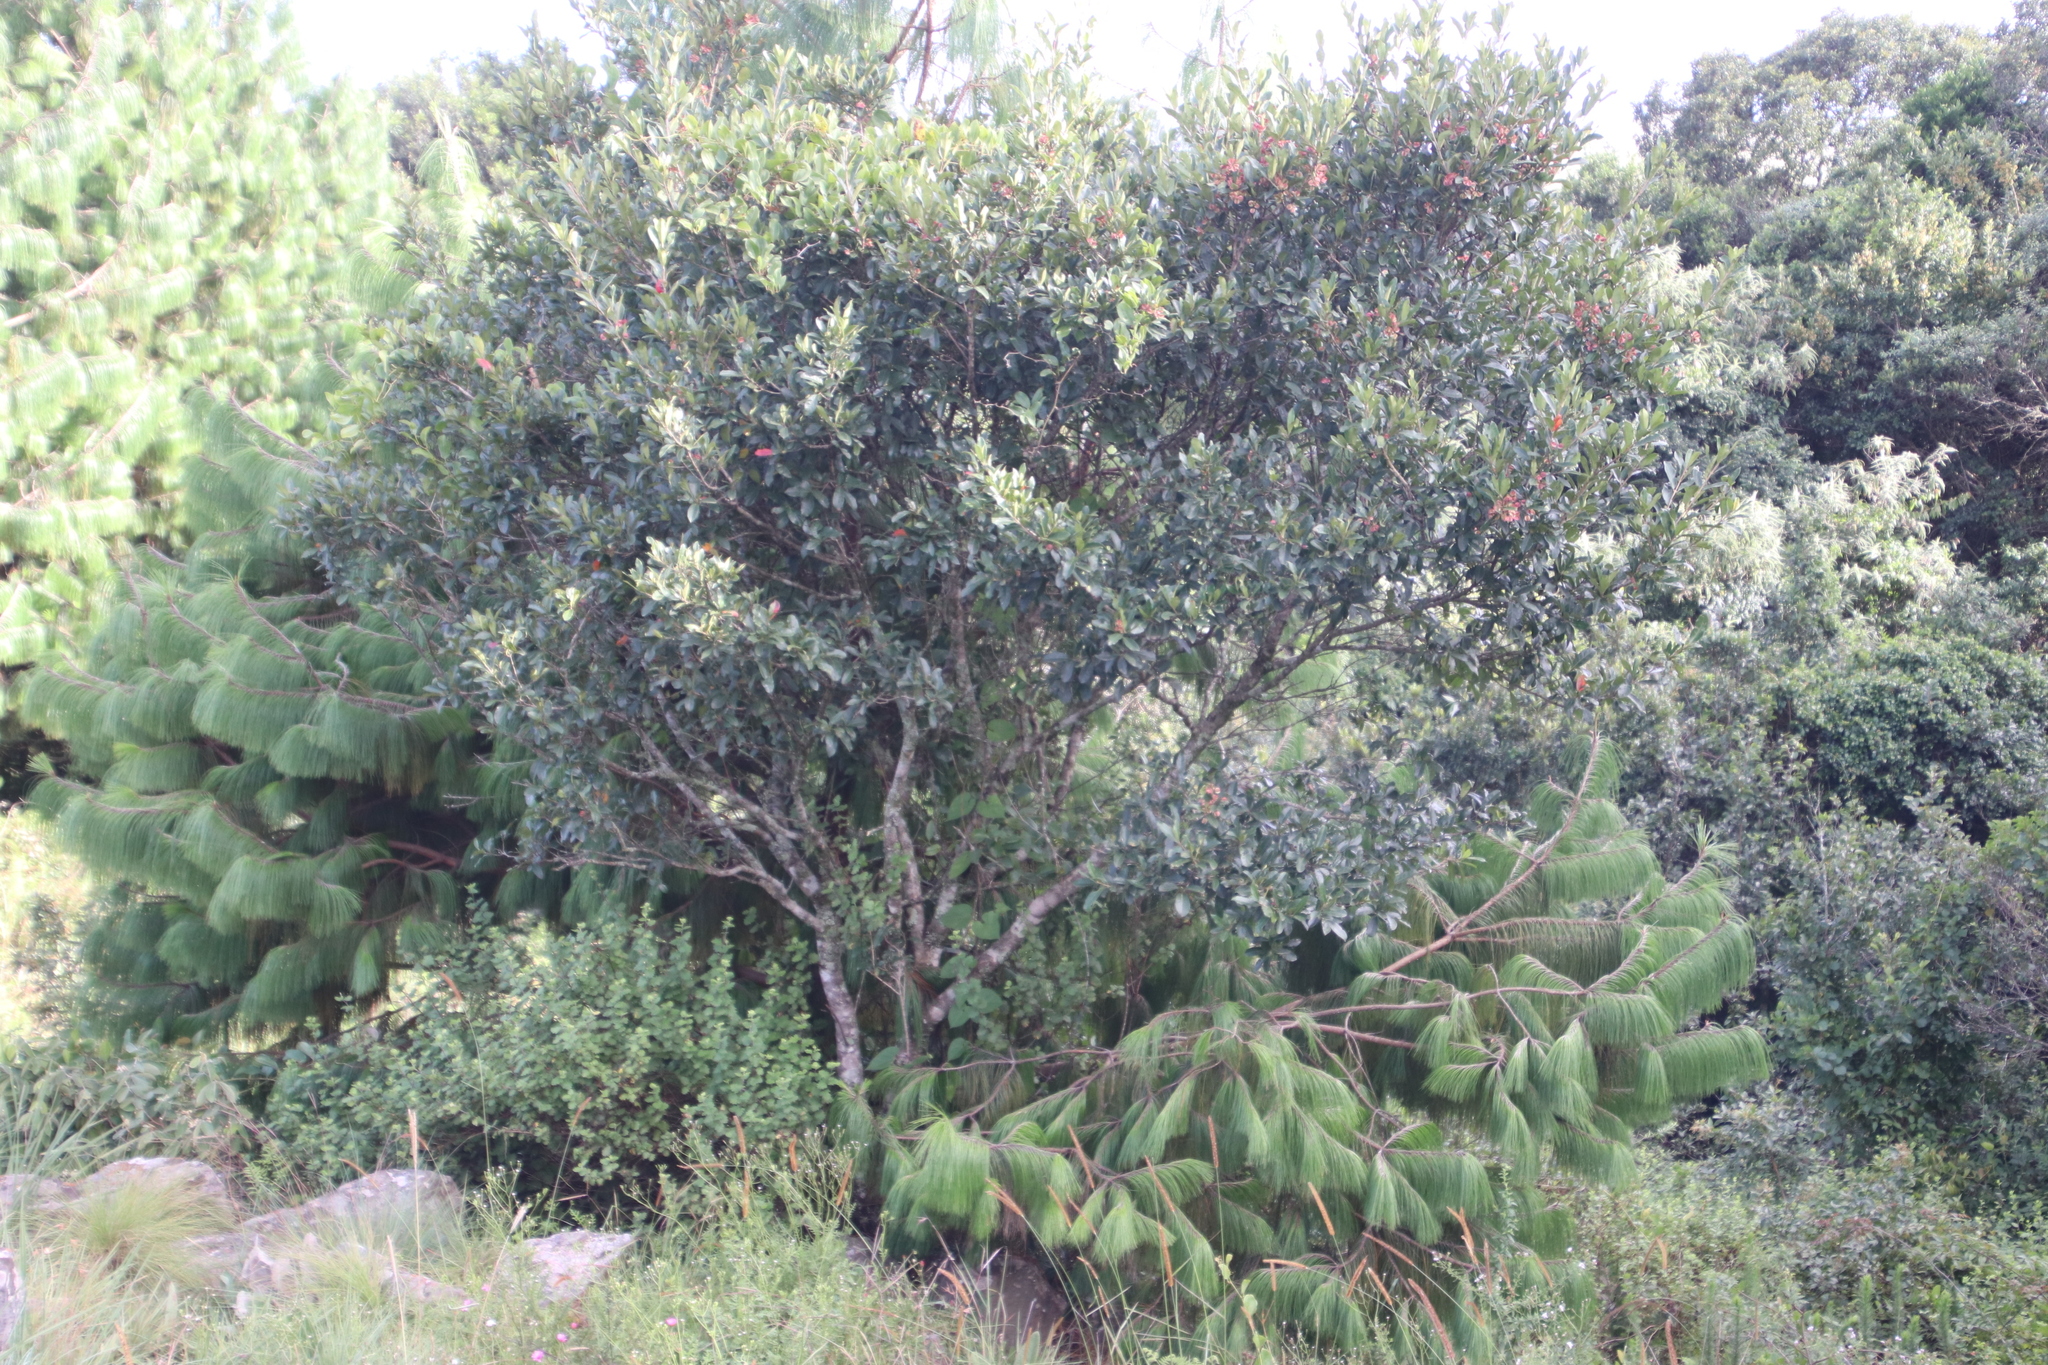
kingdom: Plantae
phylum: Tracheophyta
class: Magnoliopsida
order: Myrtales
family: Combretaceae
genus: Combretum
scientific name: Combretum kraussii
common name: Forest bushwillow
